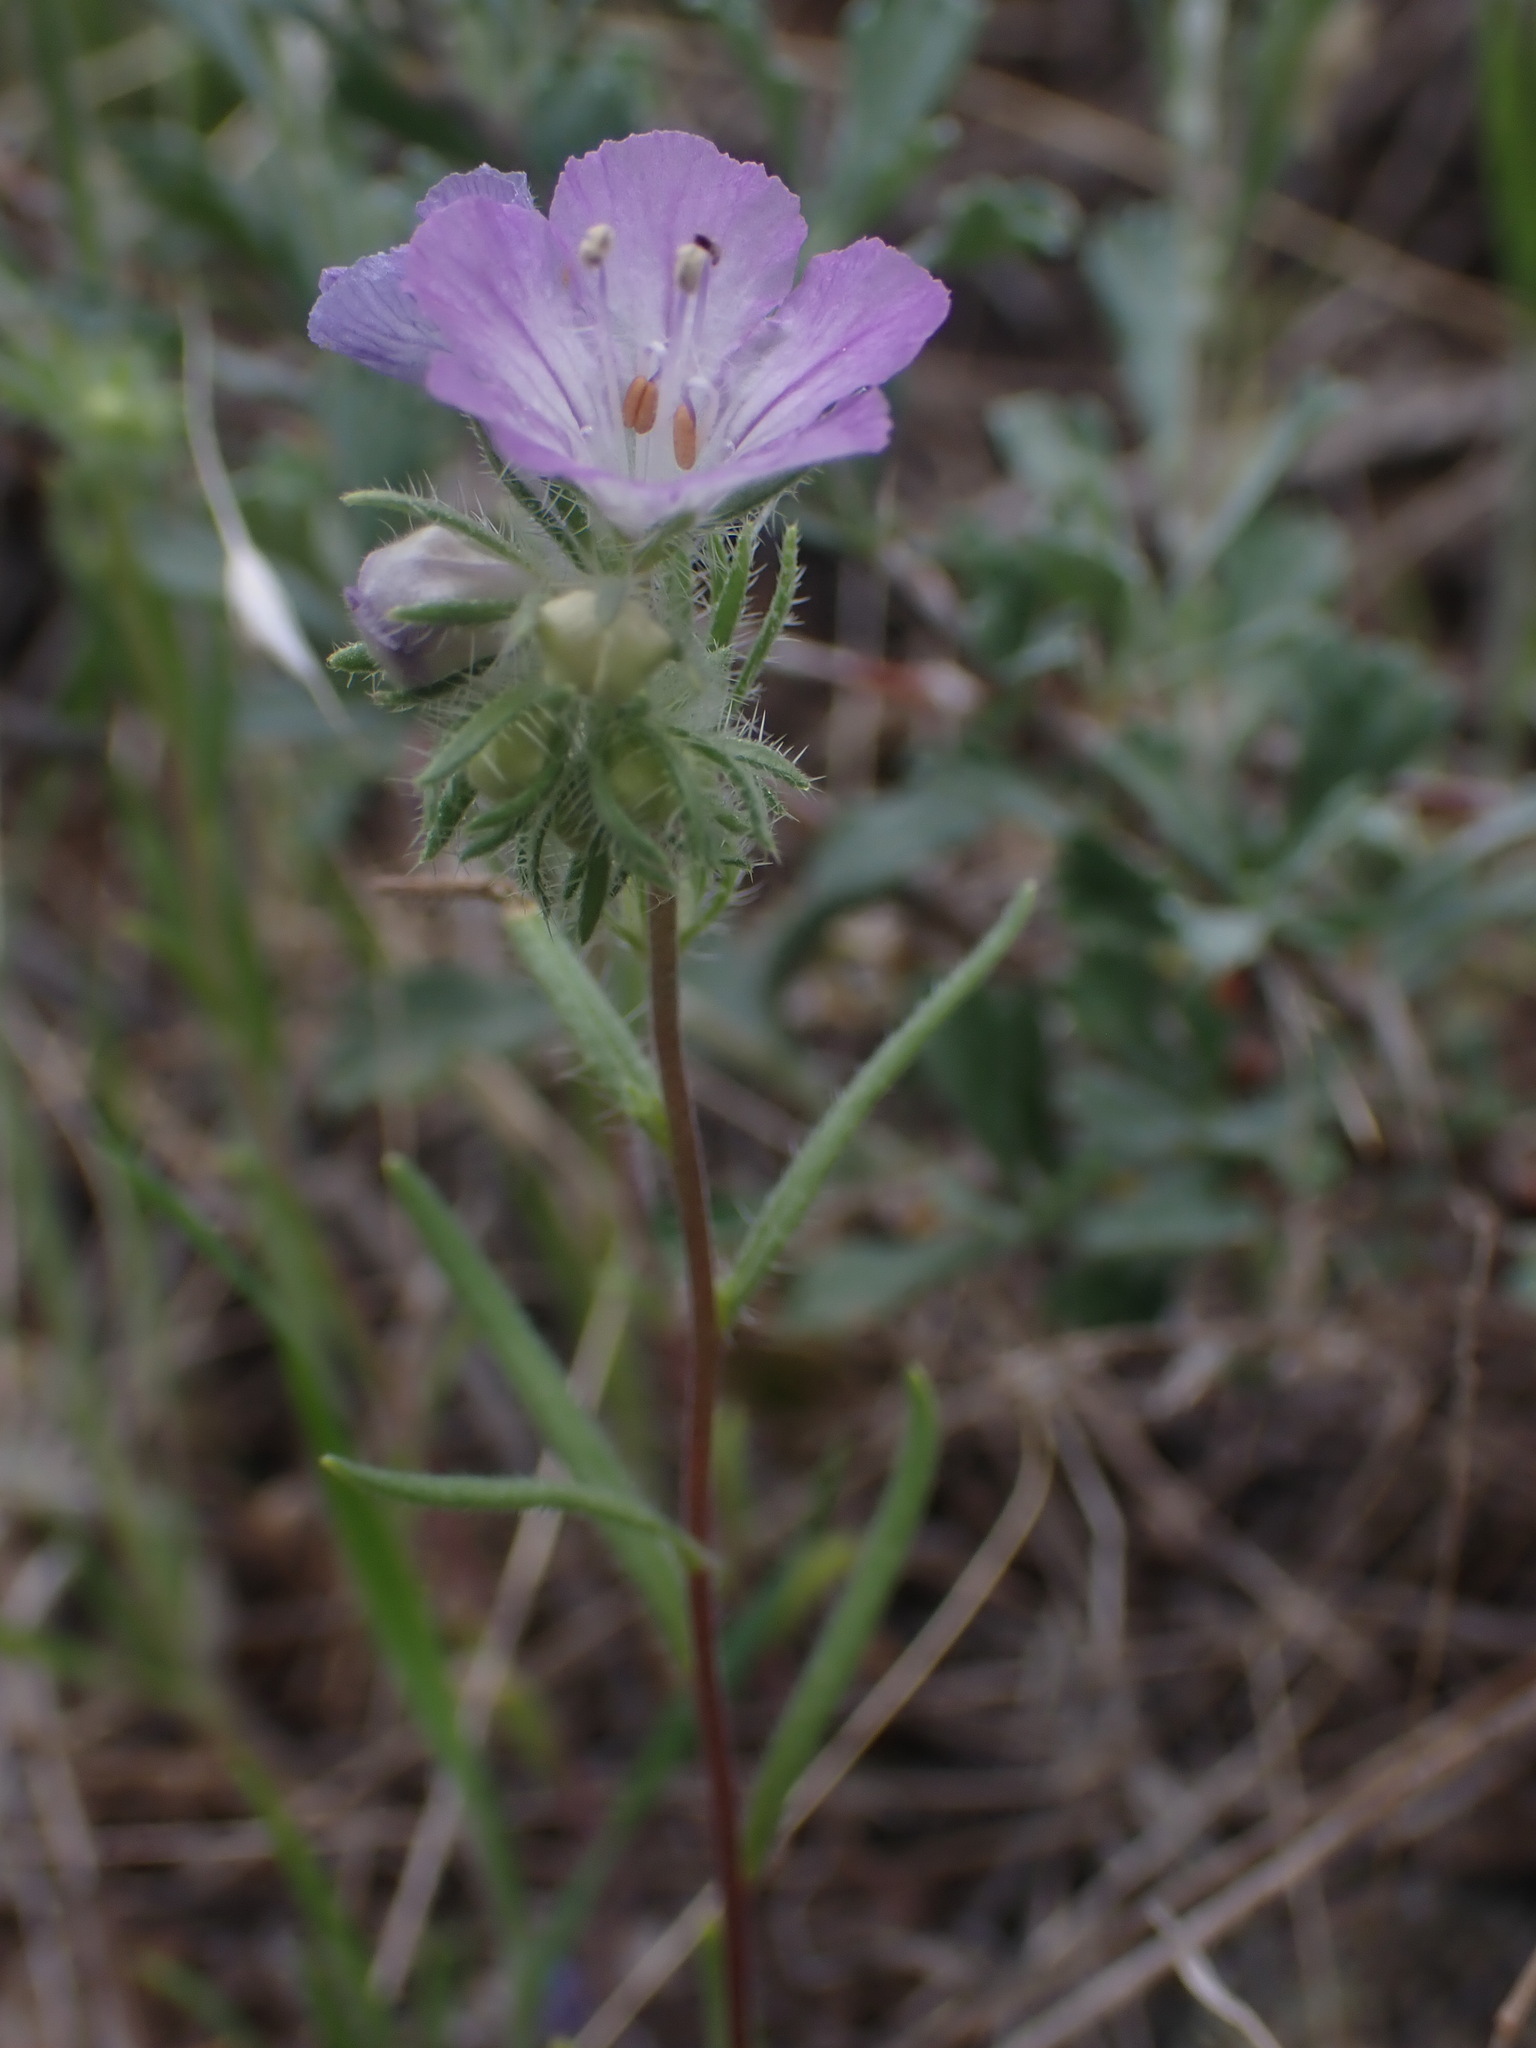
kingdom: Plantae
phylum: Tracheophyta
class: Magnoliopsida
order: Boraginales
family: Hydrophyllaceae
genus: Phacelia
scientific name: Phacelia linearis
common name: Linear-leaved phacelia
